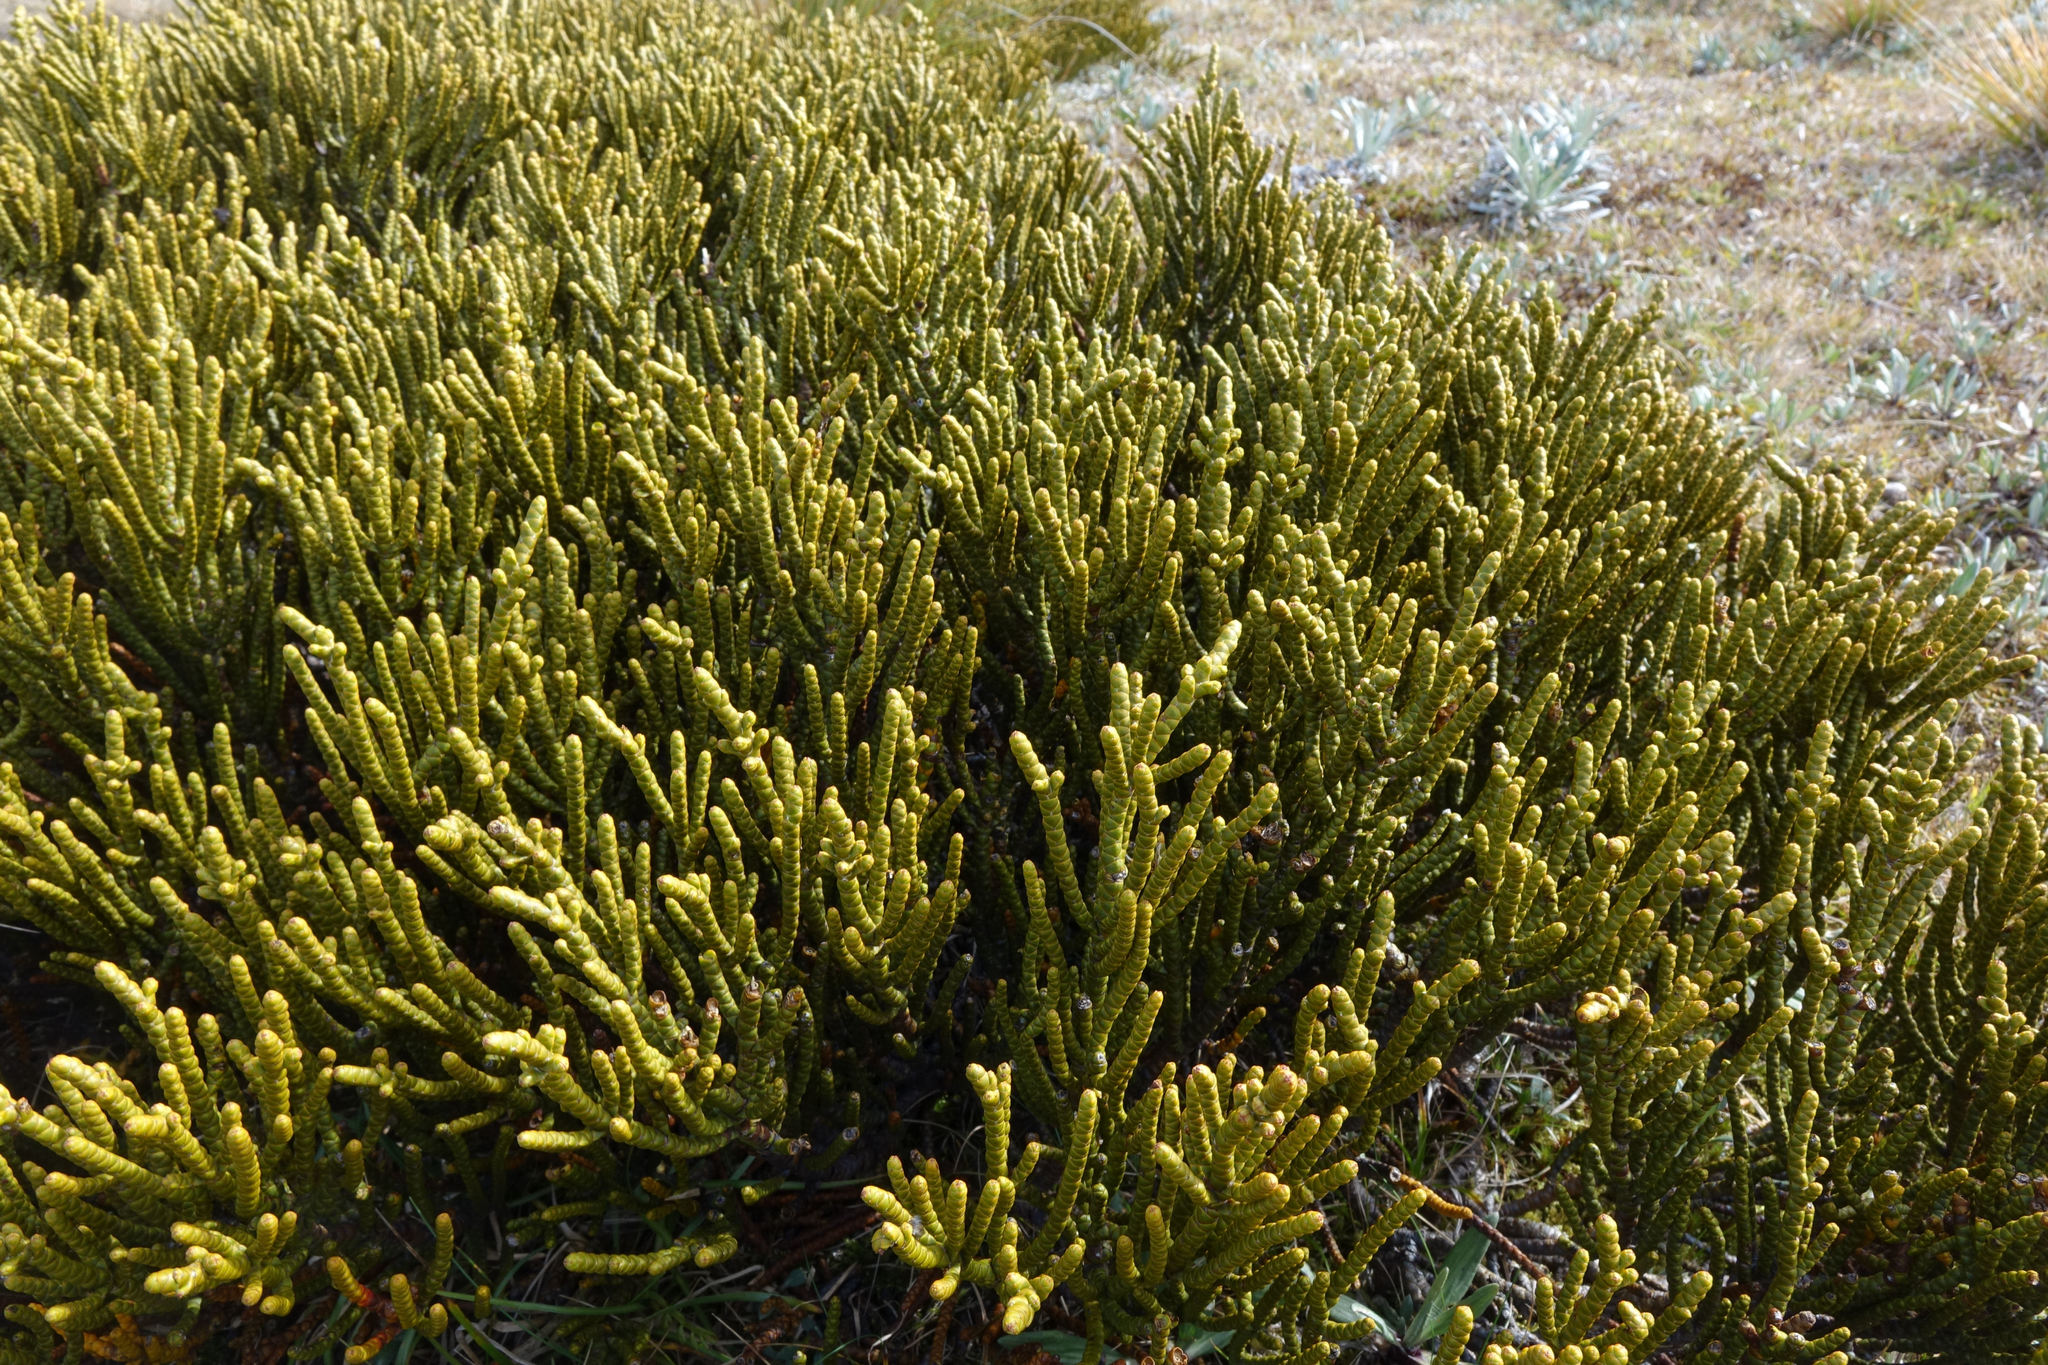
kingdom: Plantae
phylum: Tracheophyta
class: Magnoliopsida
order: Lamiales
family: Plantaginaceae
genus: Veronica
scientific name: Veronica hectorii
